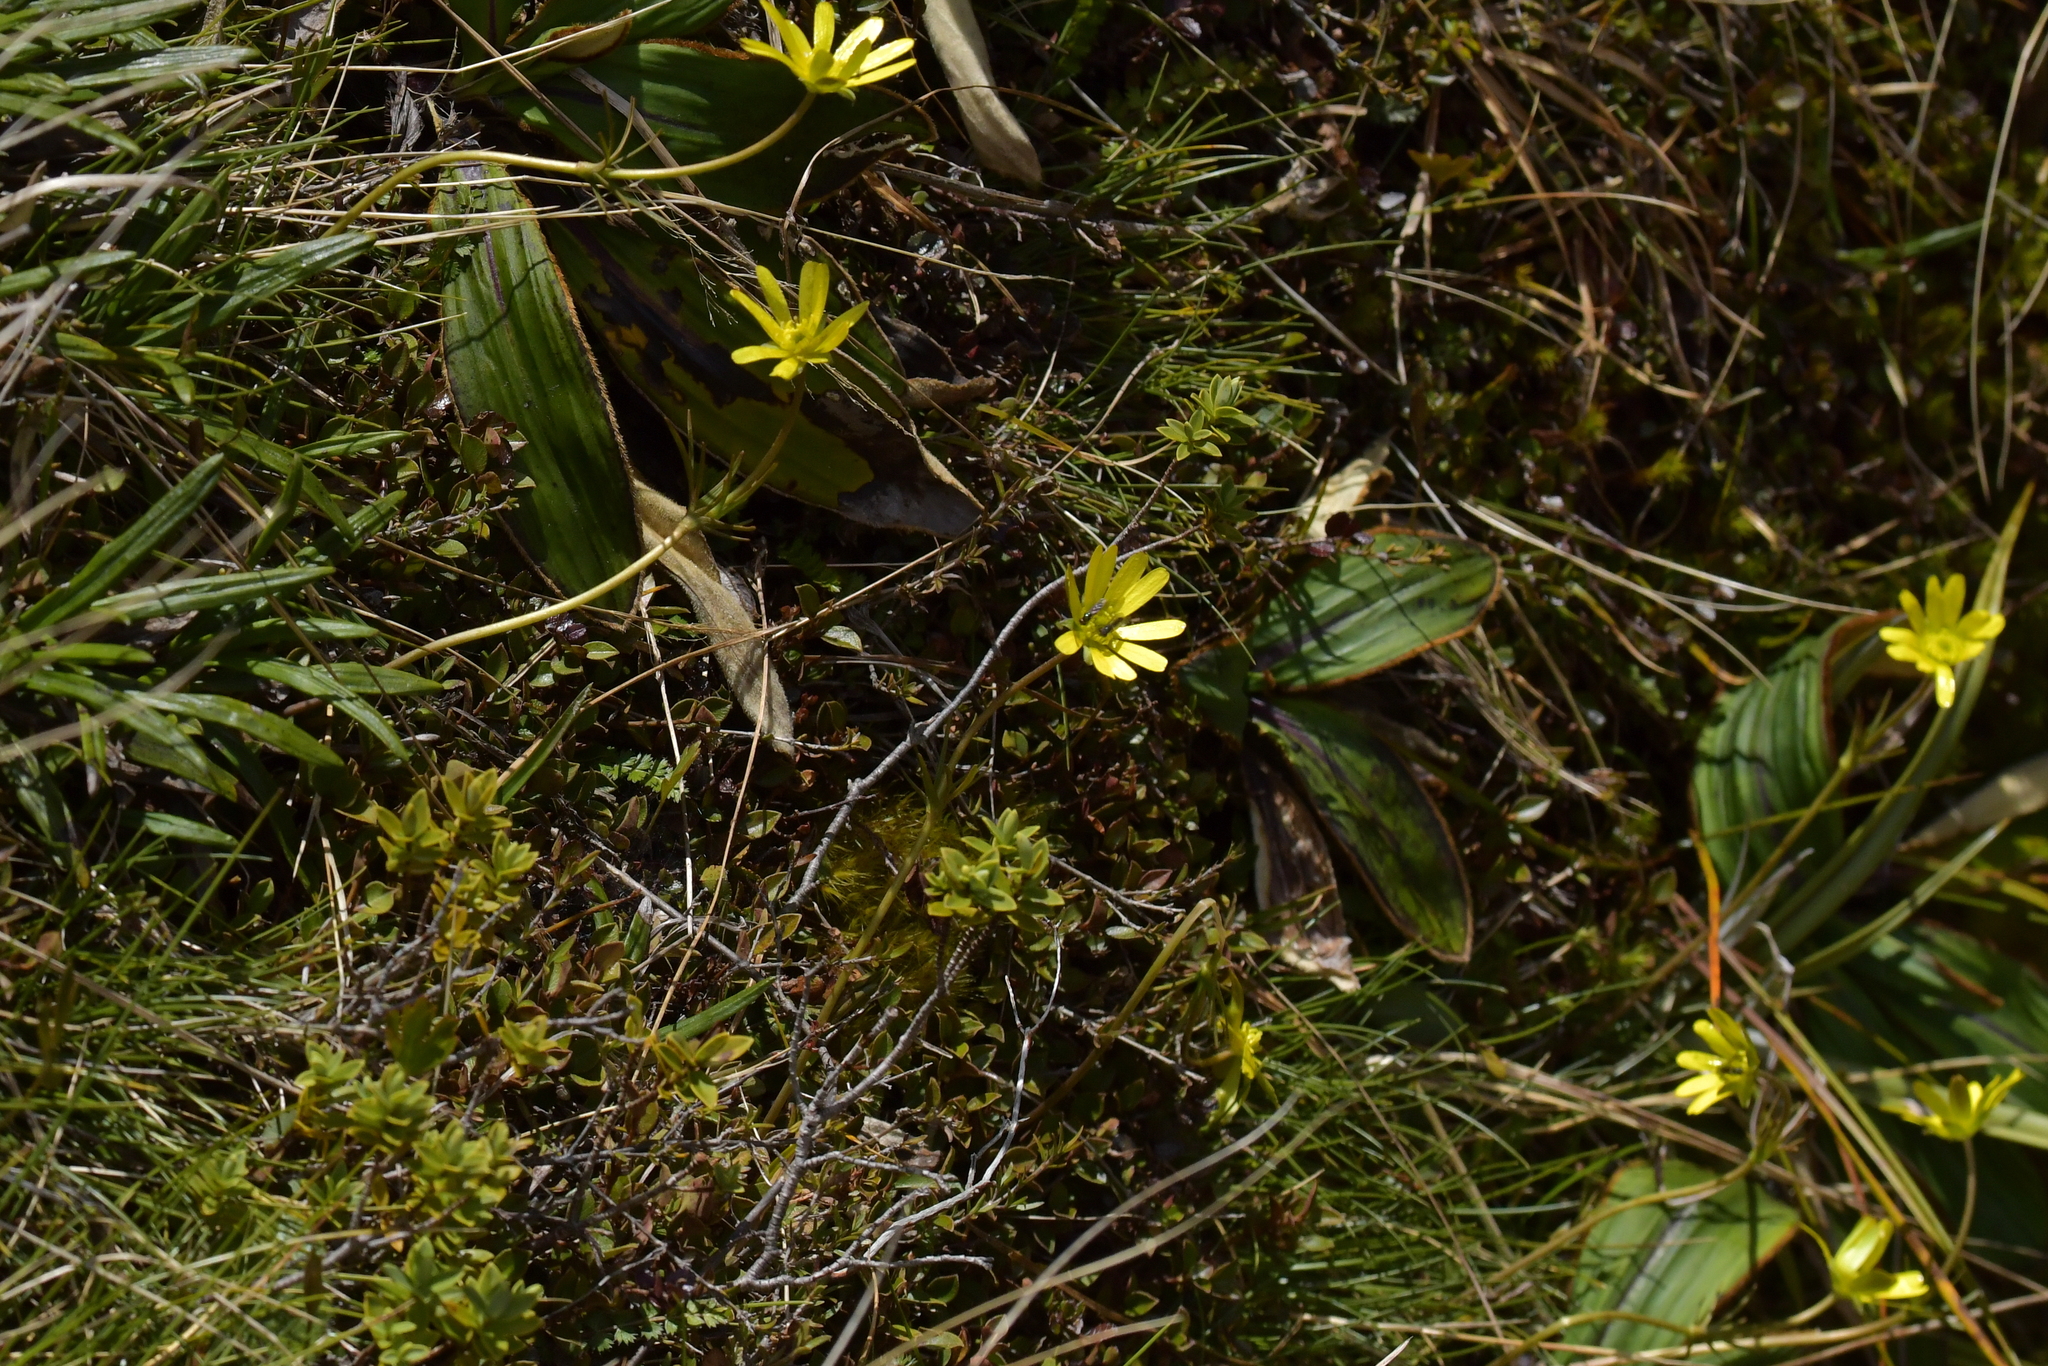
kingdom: Plantae
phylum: Tracheophyta
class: Magnoliopsida
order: Ranunculales
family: Ranunculaceae
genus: Ranunculus
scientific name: Ranunculus verticillatus
